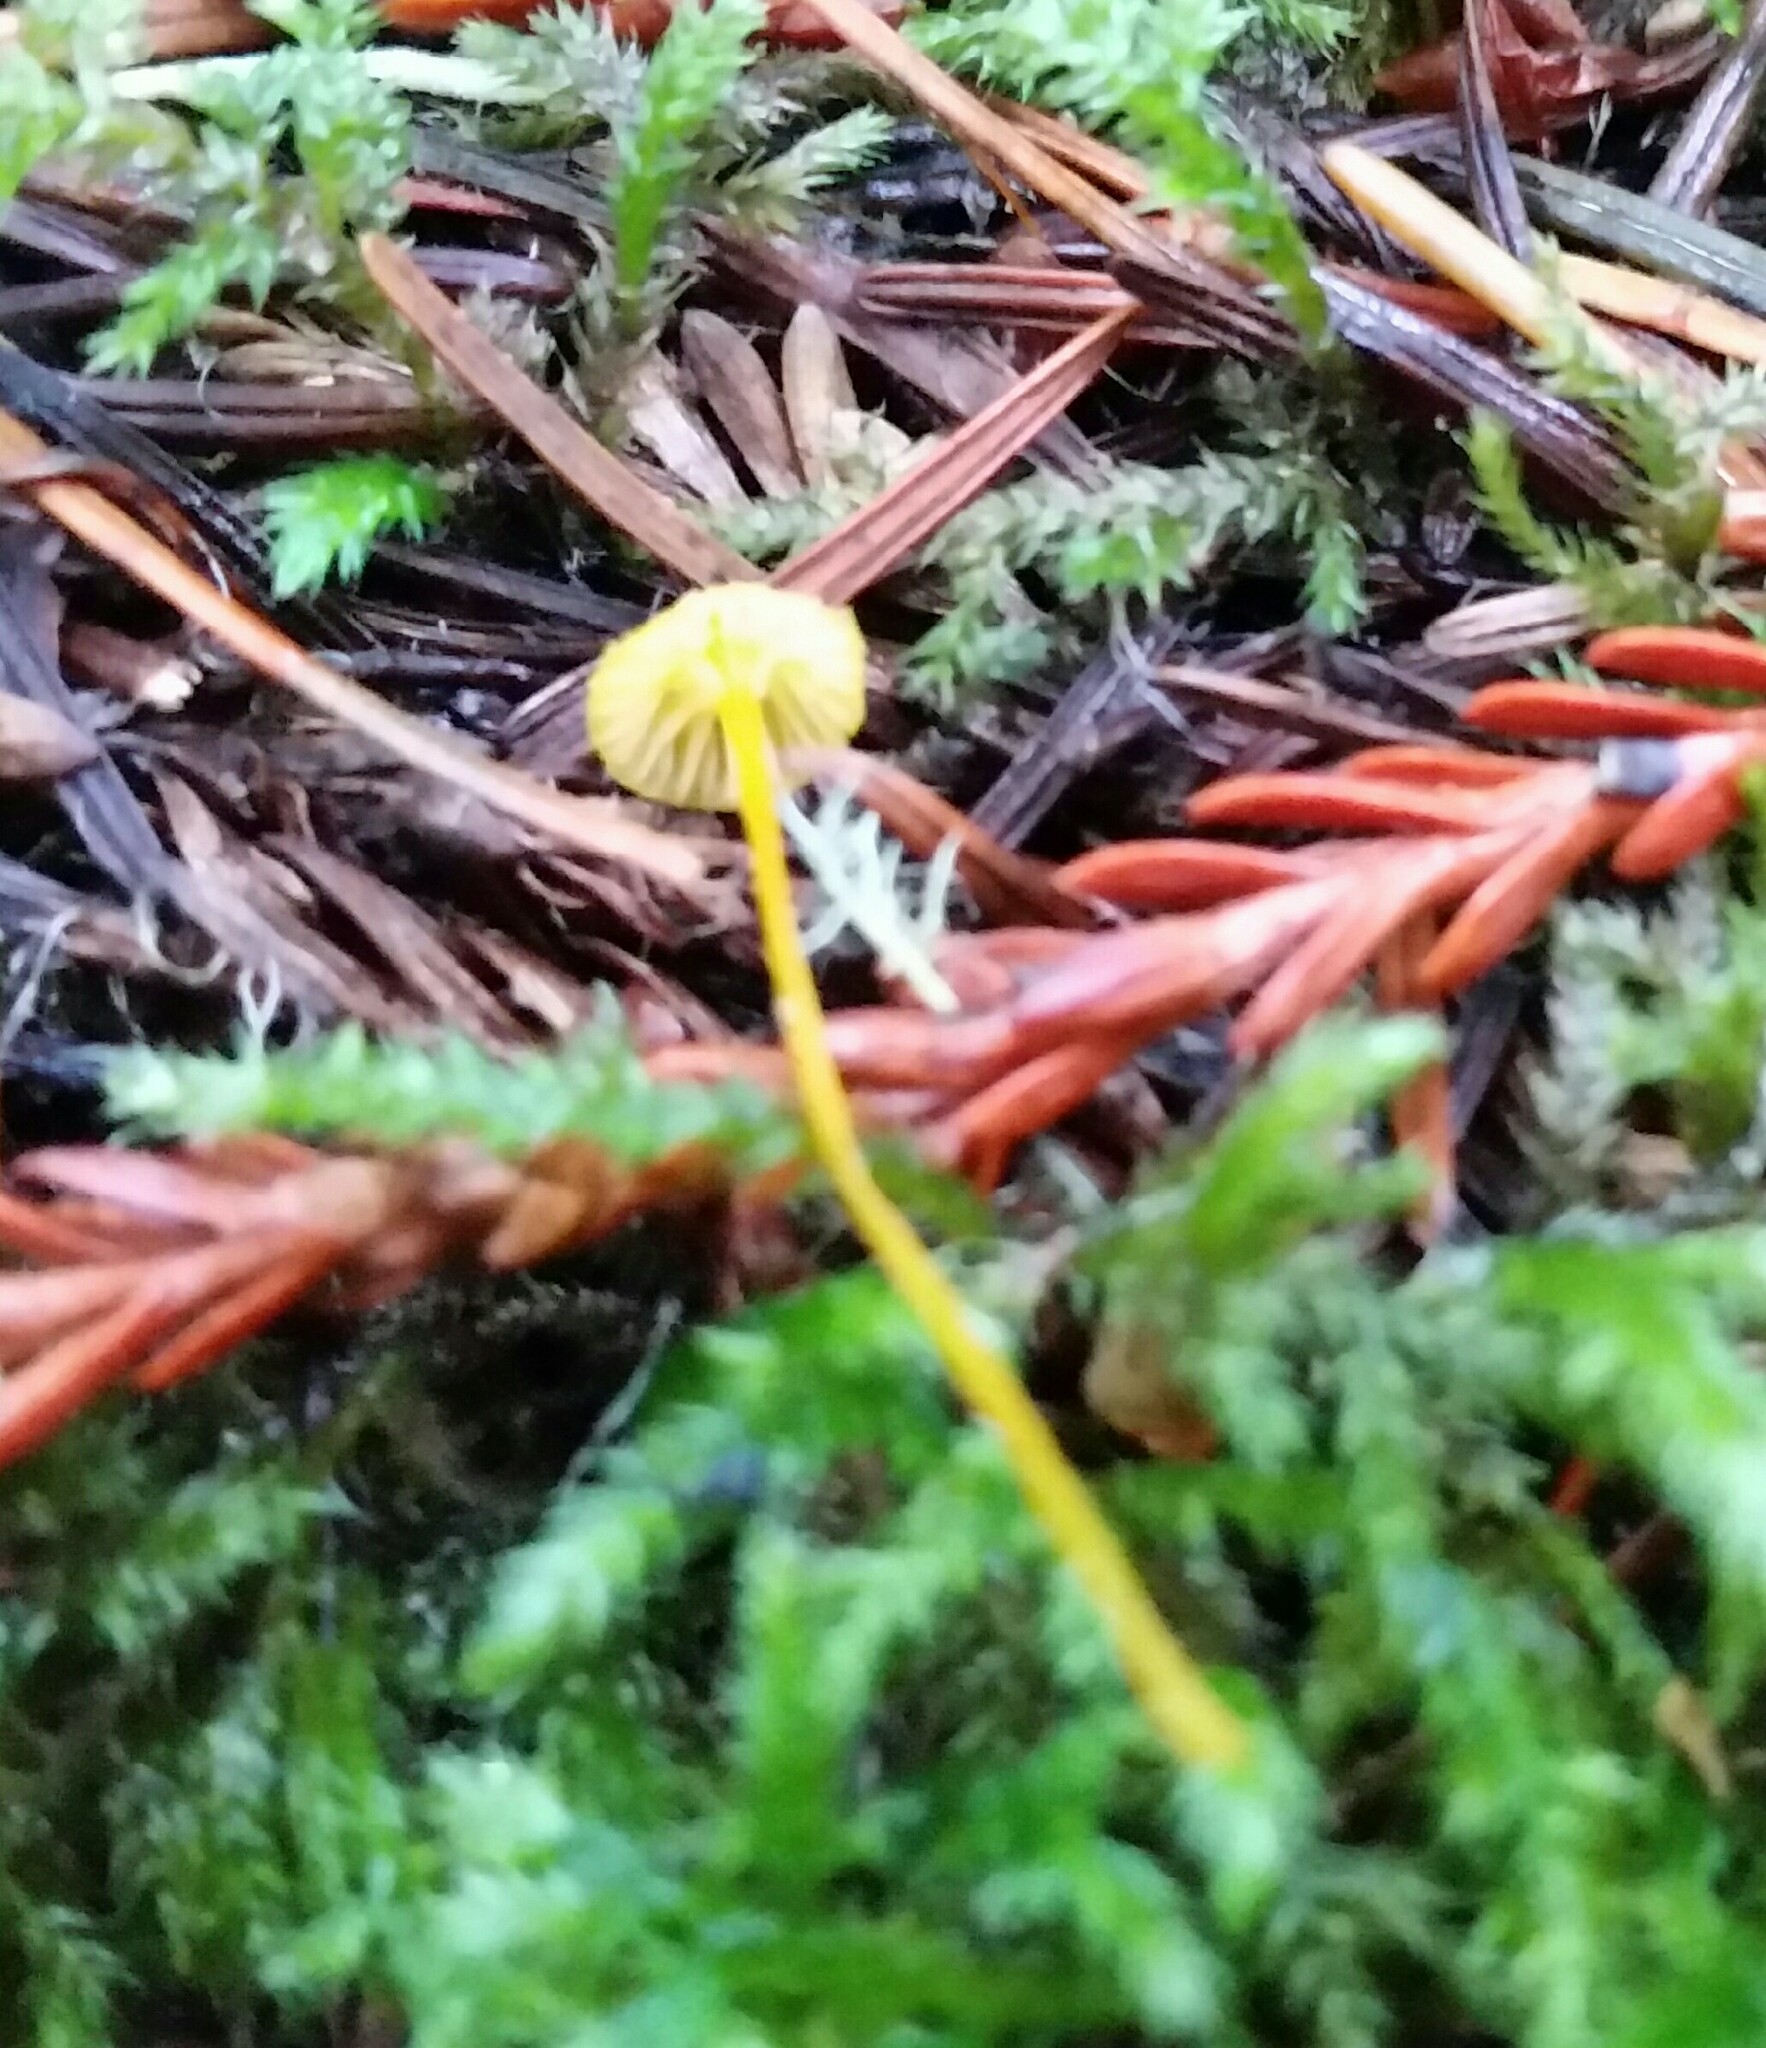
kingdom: Fungi
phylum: Basidiomycota
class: Agaricomycetes
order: Agaricales
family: Mycenaceae
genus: Mycena
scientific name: Mycena oregonensis
